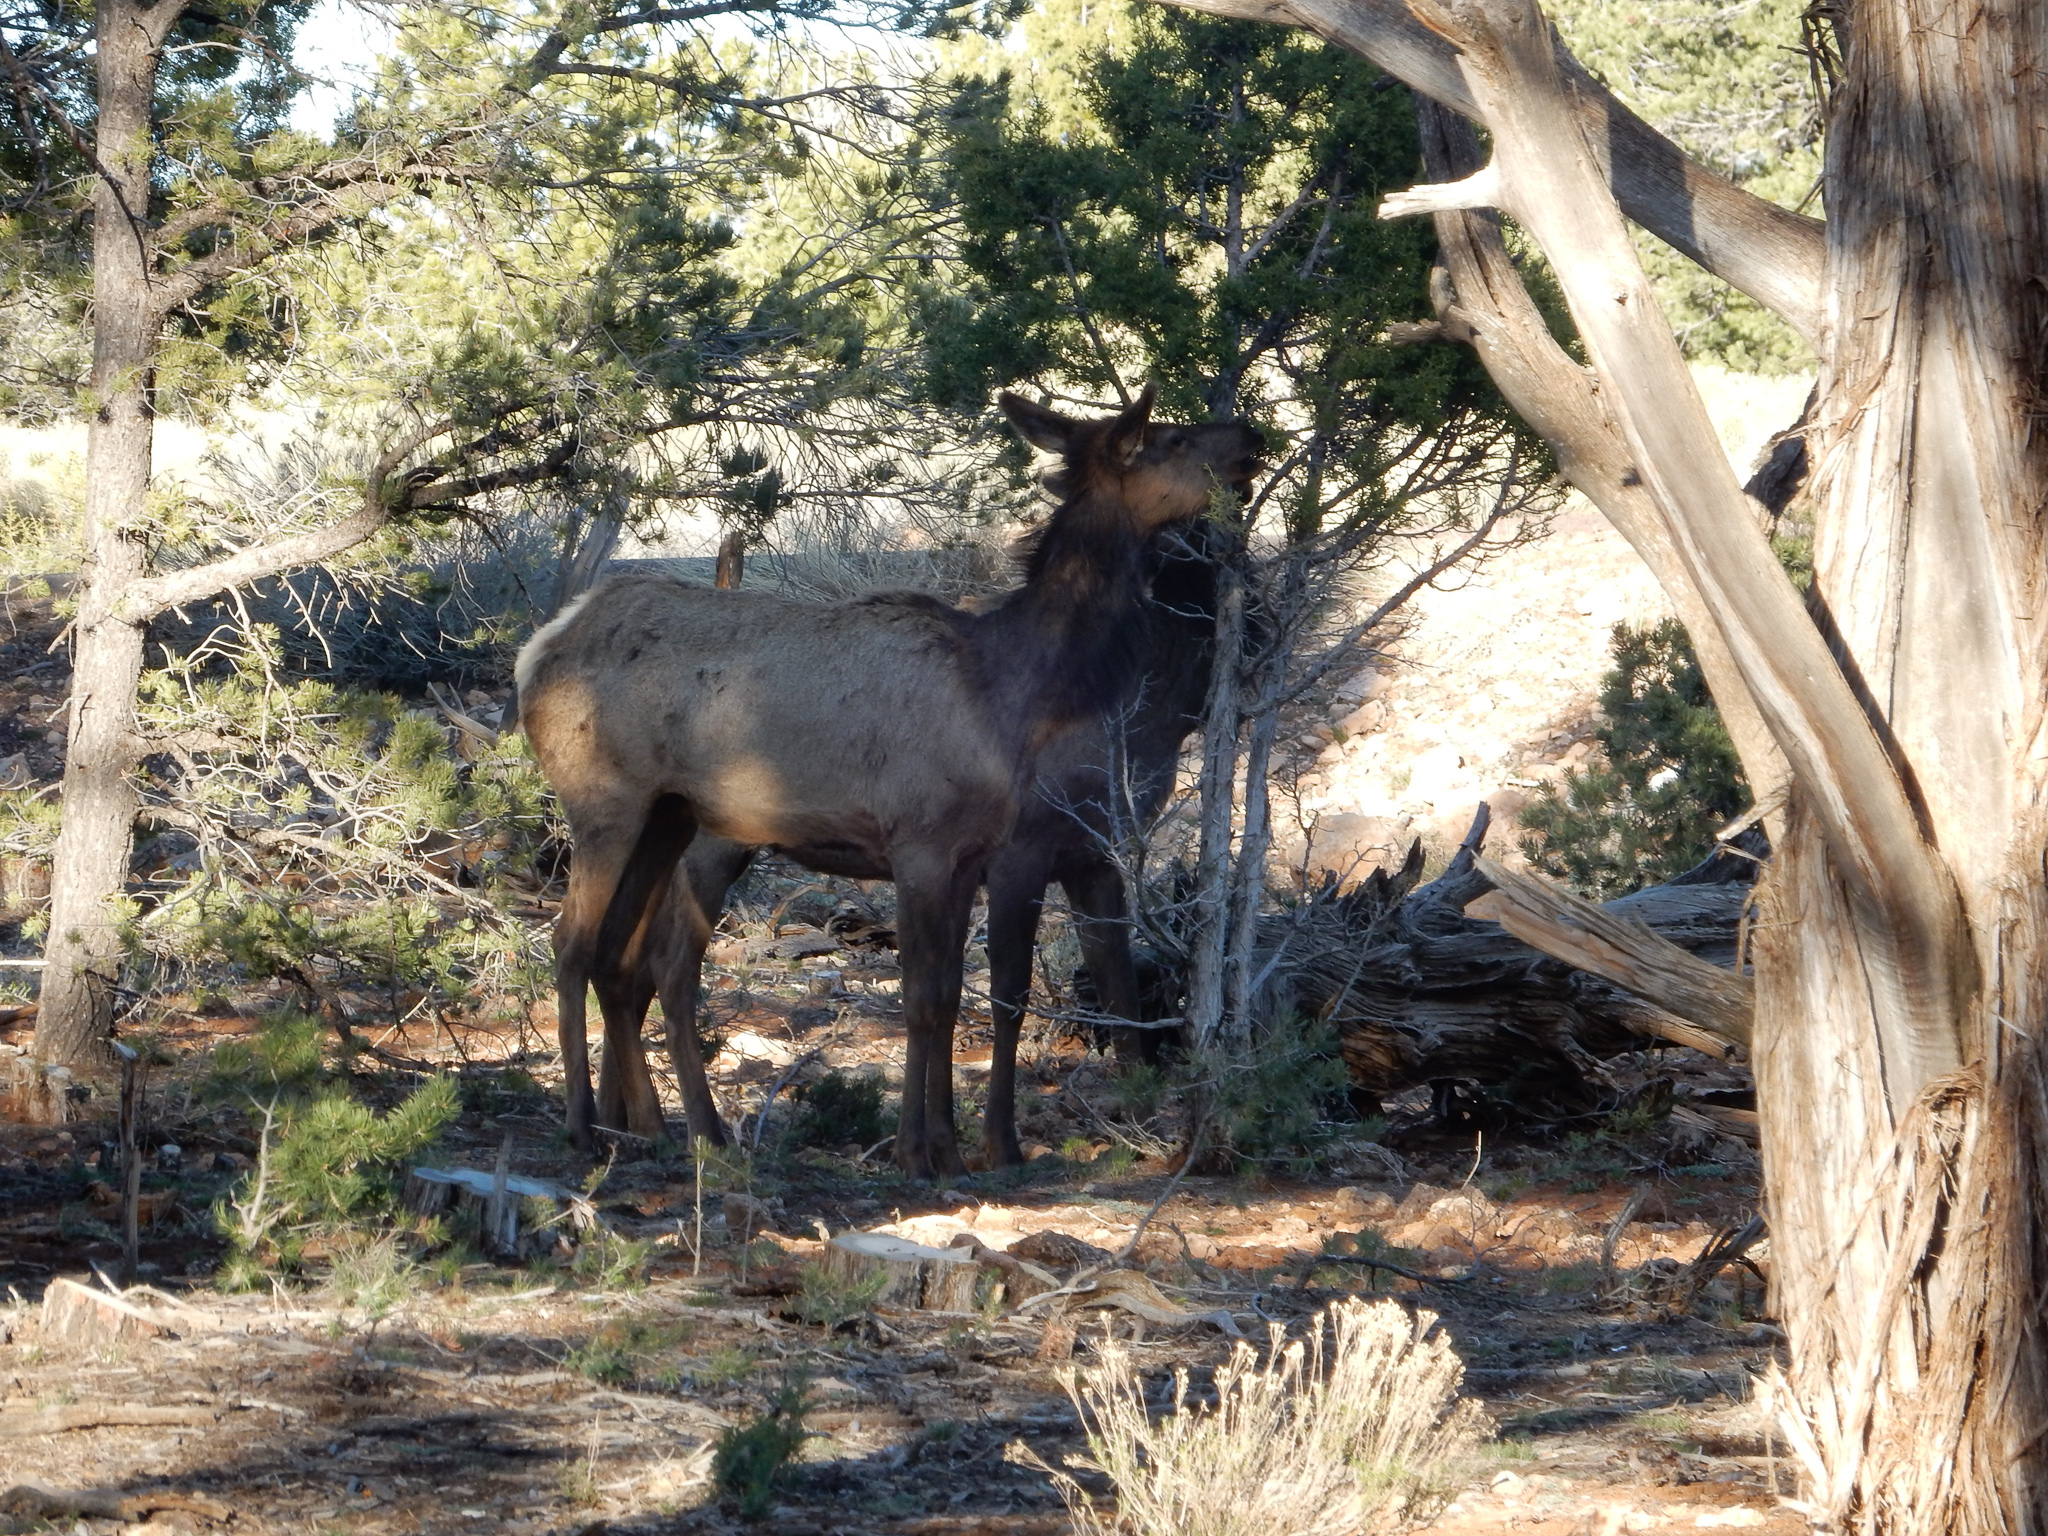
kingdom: Animalia
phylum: Chordata
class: Mammalia
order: Artiodactyla
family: Cervidae
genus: Cervus
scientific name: Cervus elaphus
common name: Red deer
